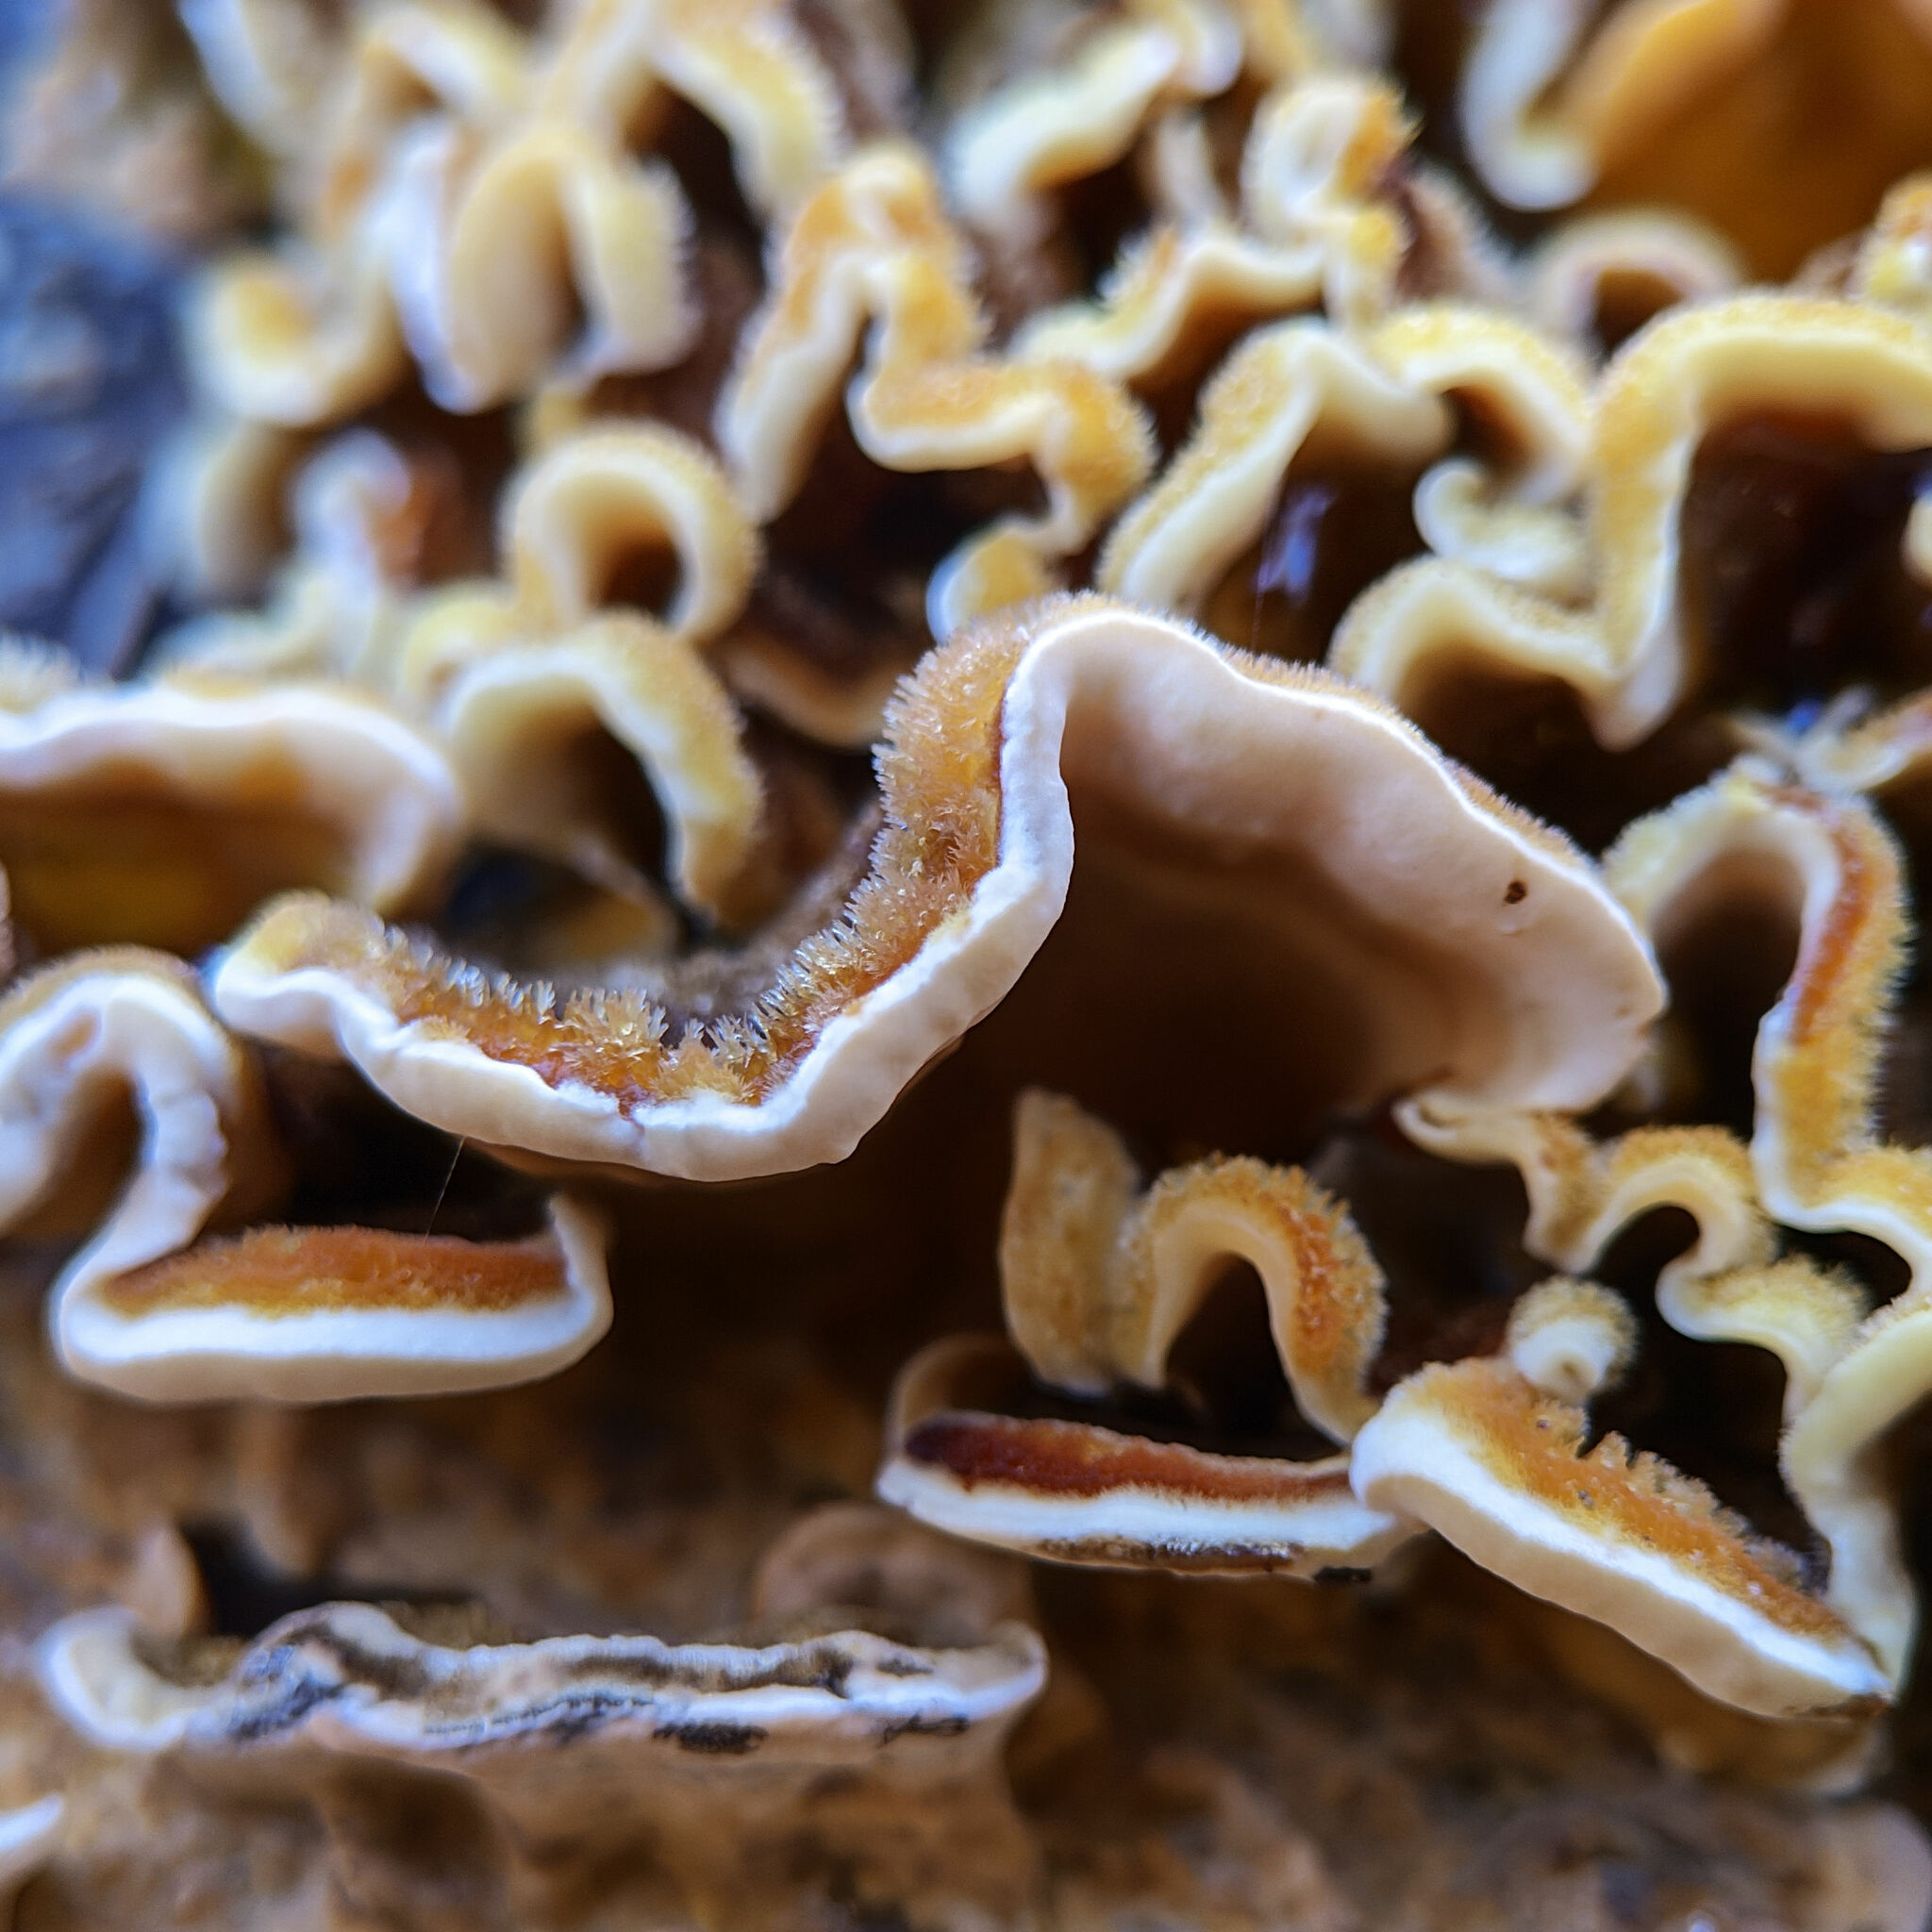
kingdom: Fungi
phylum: Basidiomycota
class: Agaricomycetes
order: Russulales
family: Stereaceae
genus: Stereum
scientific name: Stereum hirsutum
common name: Hairy curtain crust
